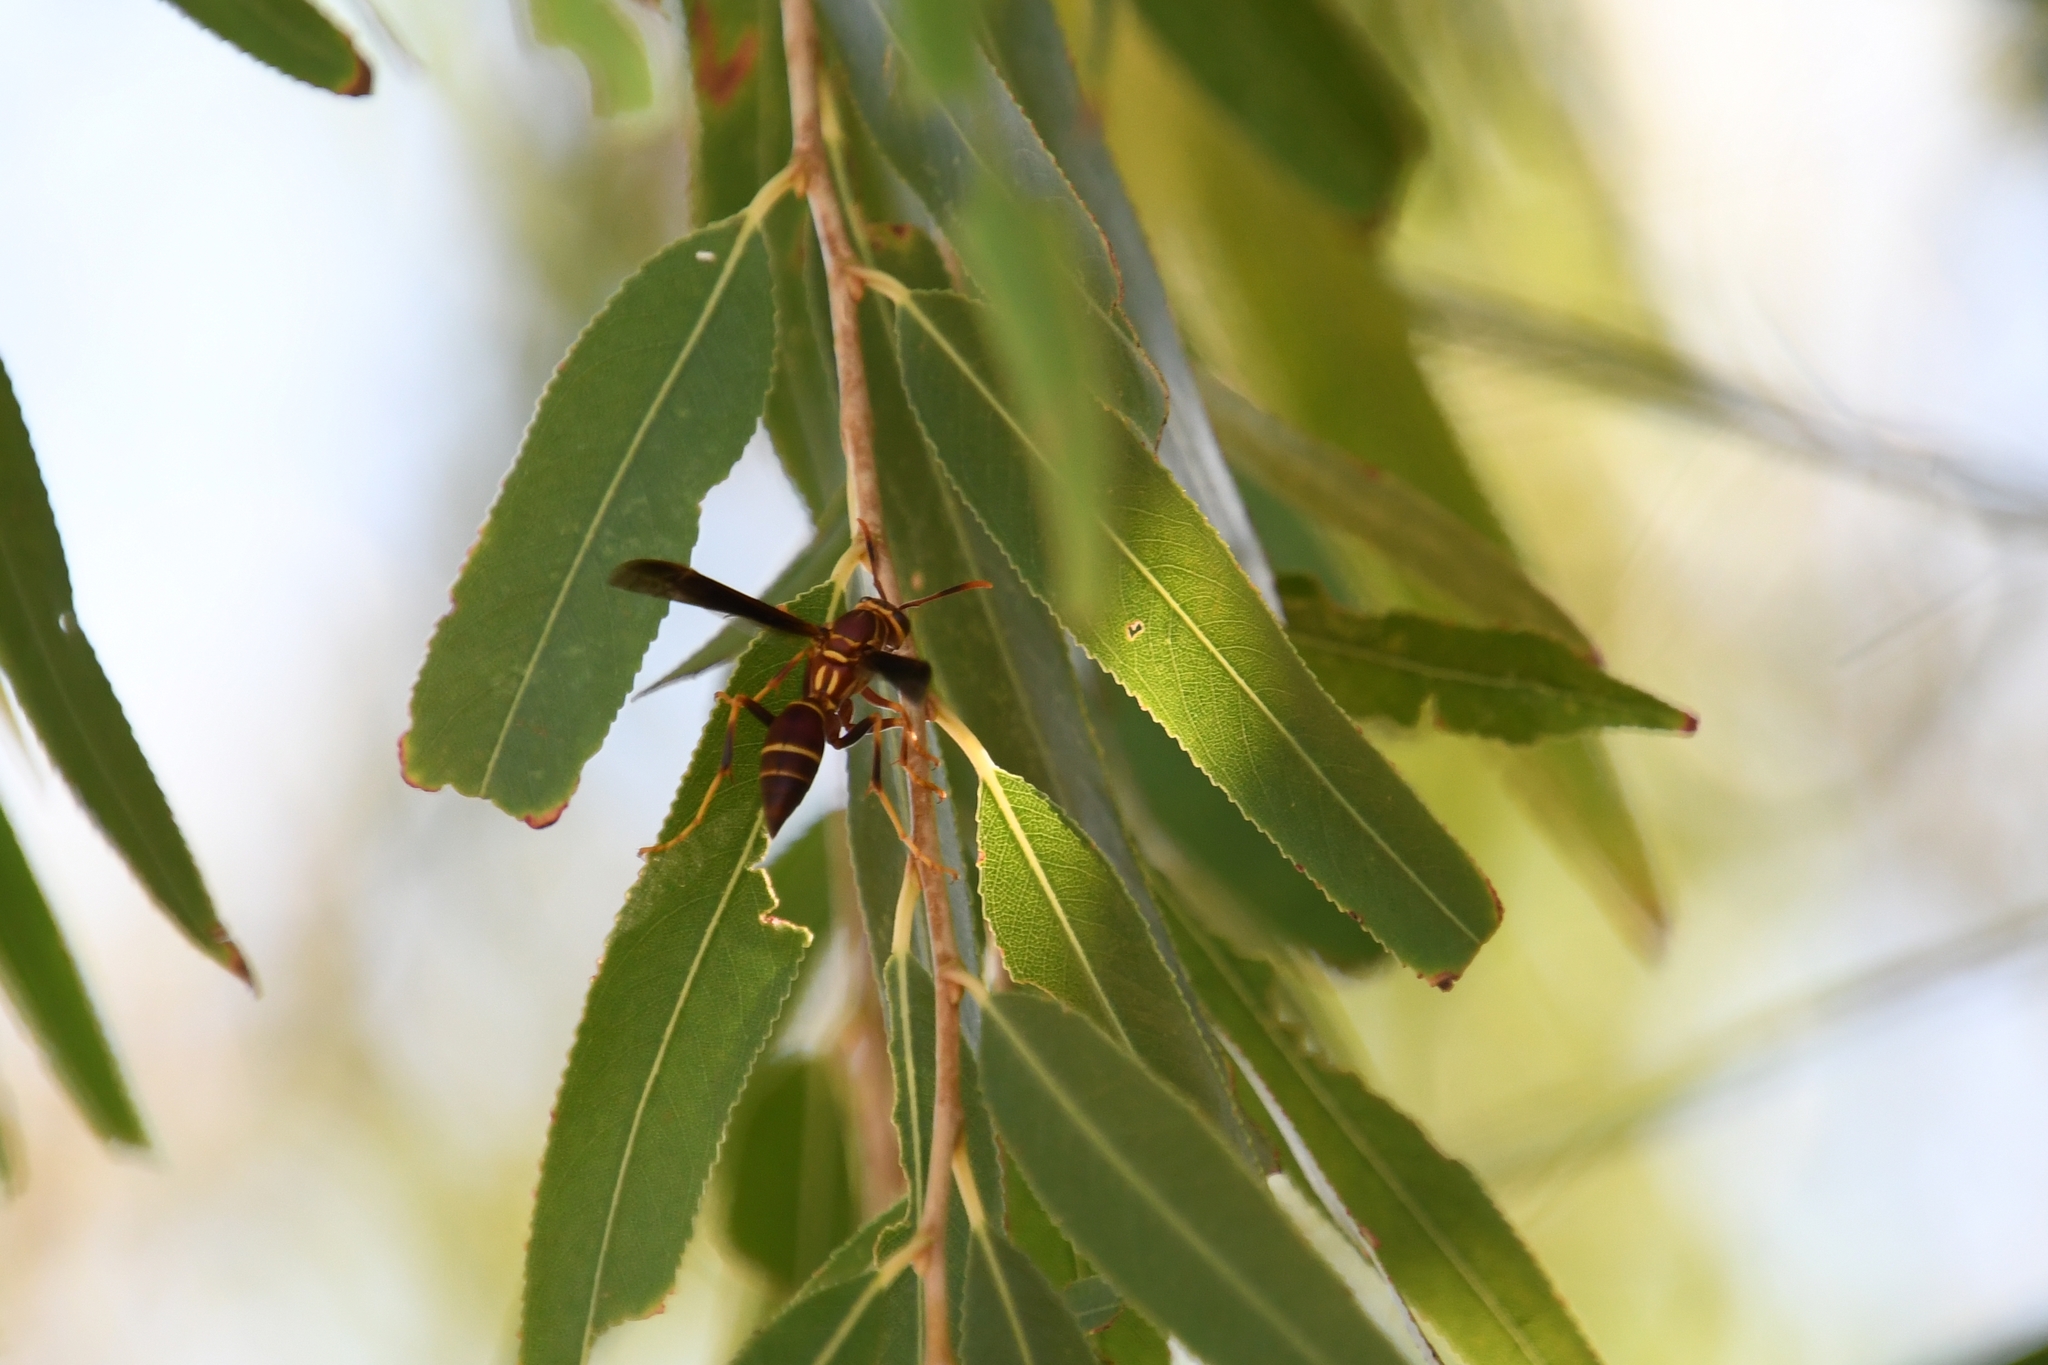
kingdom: Animalia
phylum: Arthropoda
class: Insecta
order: Hymenoptera
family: Eumenidae
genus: Polistes
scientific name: Polistes arizonensis
